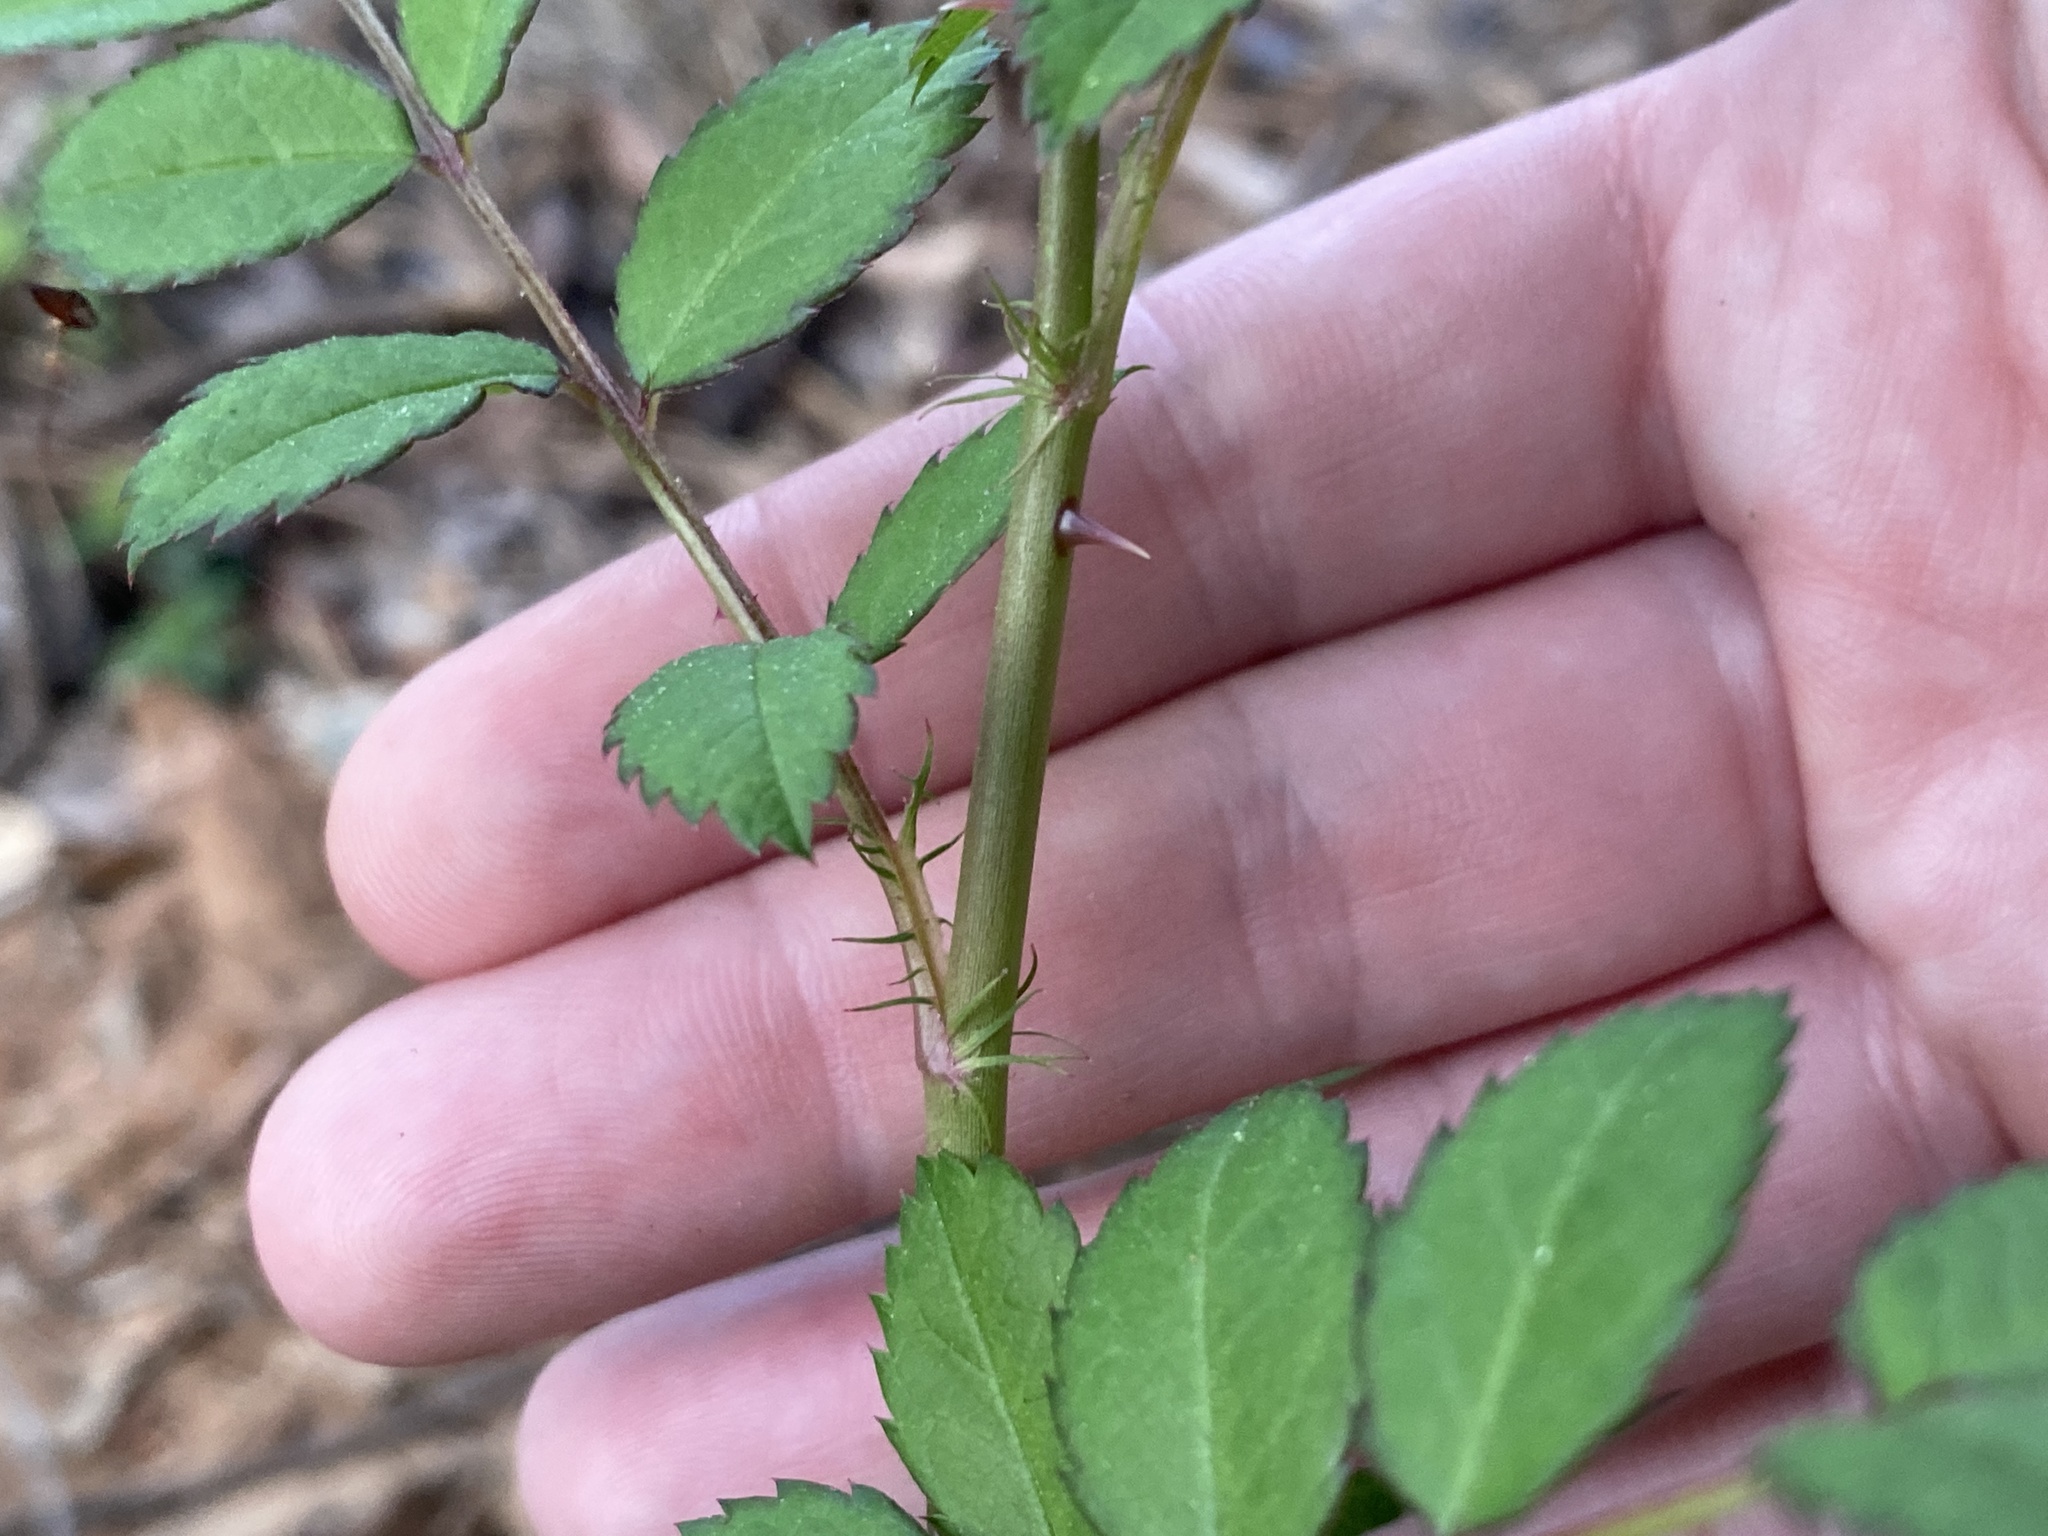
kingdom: Plantae
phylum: Tracheophyta
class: Magnoliopsida
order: Rosales
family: Rosaceae
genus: Rosa
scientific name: Rosa multiflora
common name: Multiflora rose
